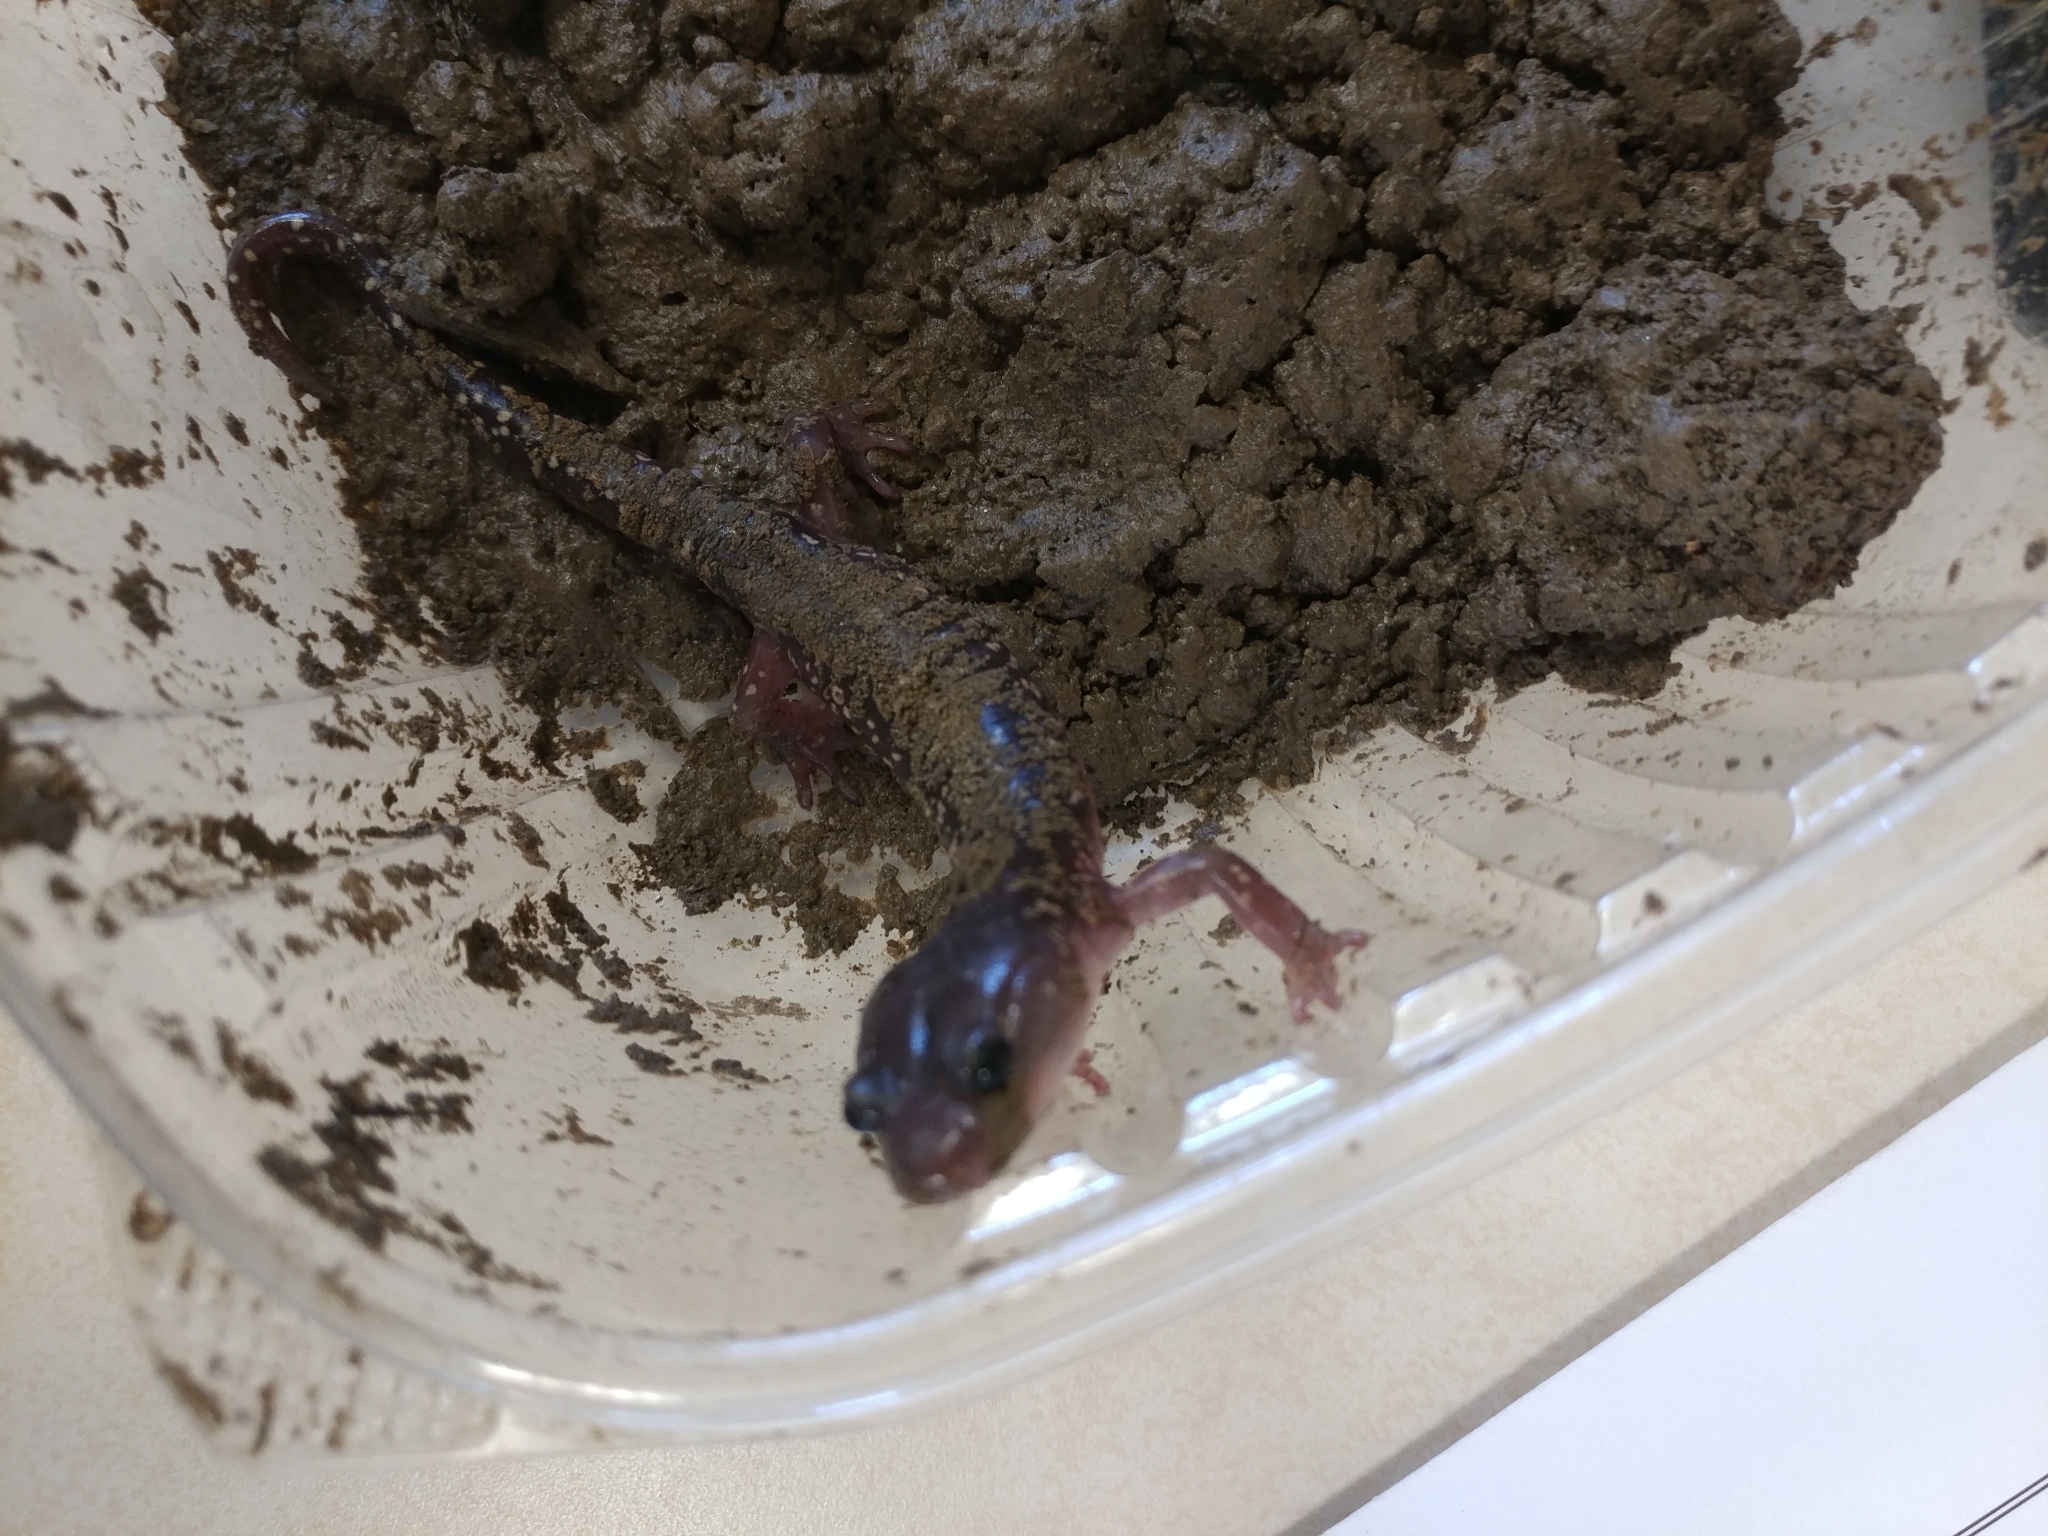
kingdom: Animalia
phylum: Chordata
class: Amphibia
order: Caudata
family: Plethodontidae
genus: Aneides
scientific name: Aneides lugubris
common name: Arboreal salamander
